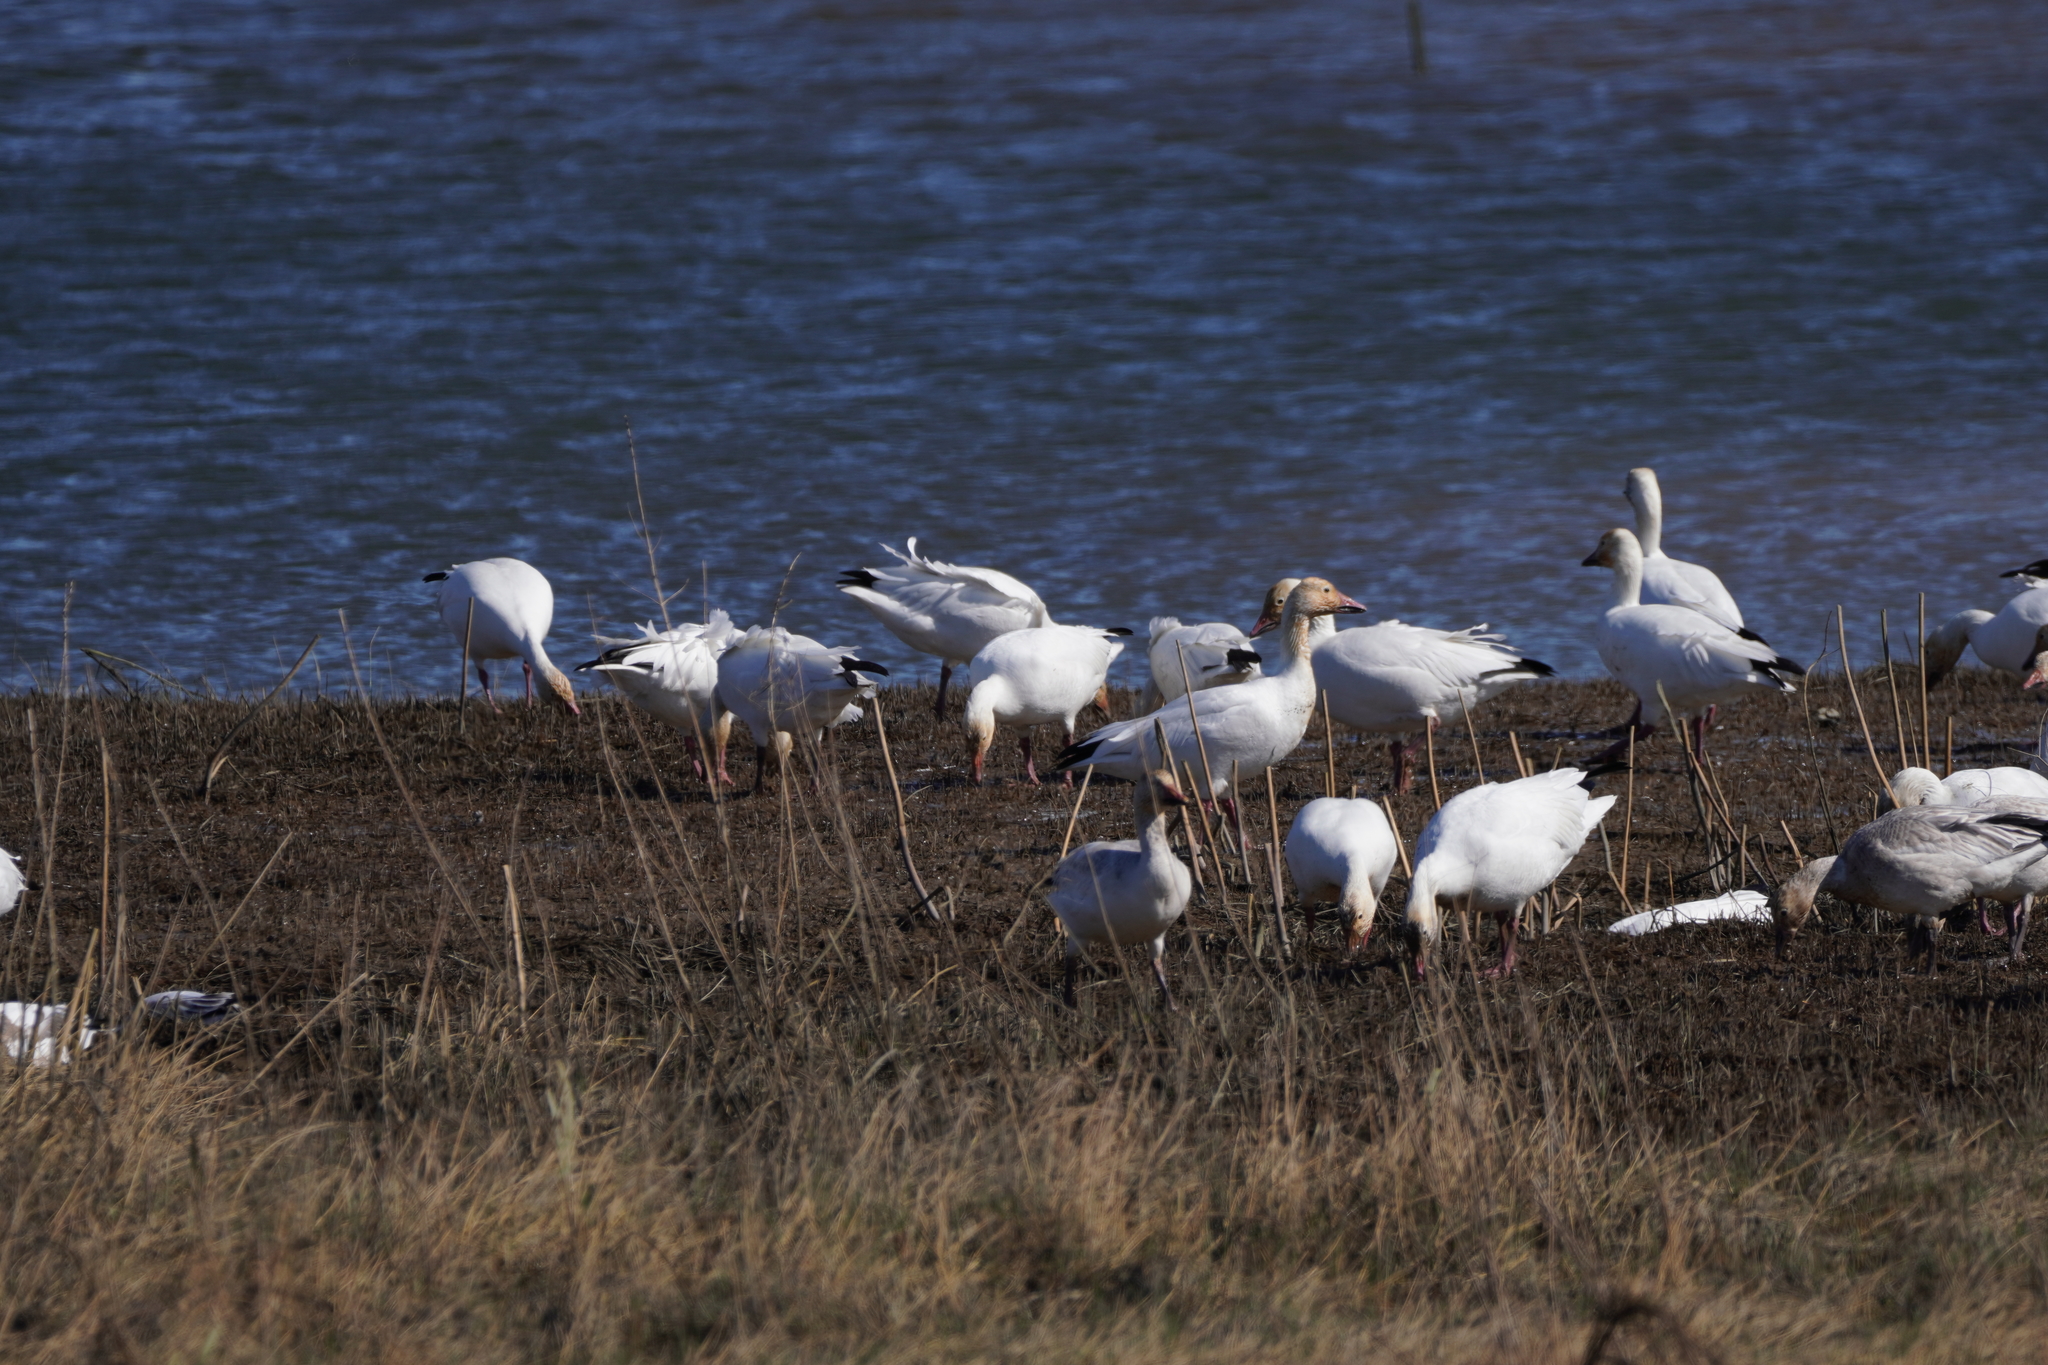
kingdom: Animalia
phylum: Chordata
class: Aves
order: Anseriformes
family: Anatidae
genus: Anser
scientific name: Anser caerulescens
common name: Snow goose
